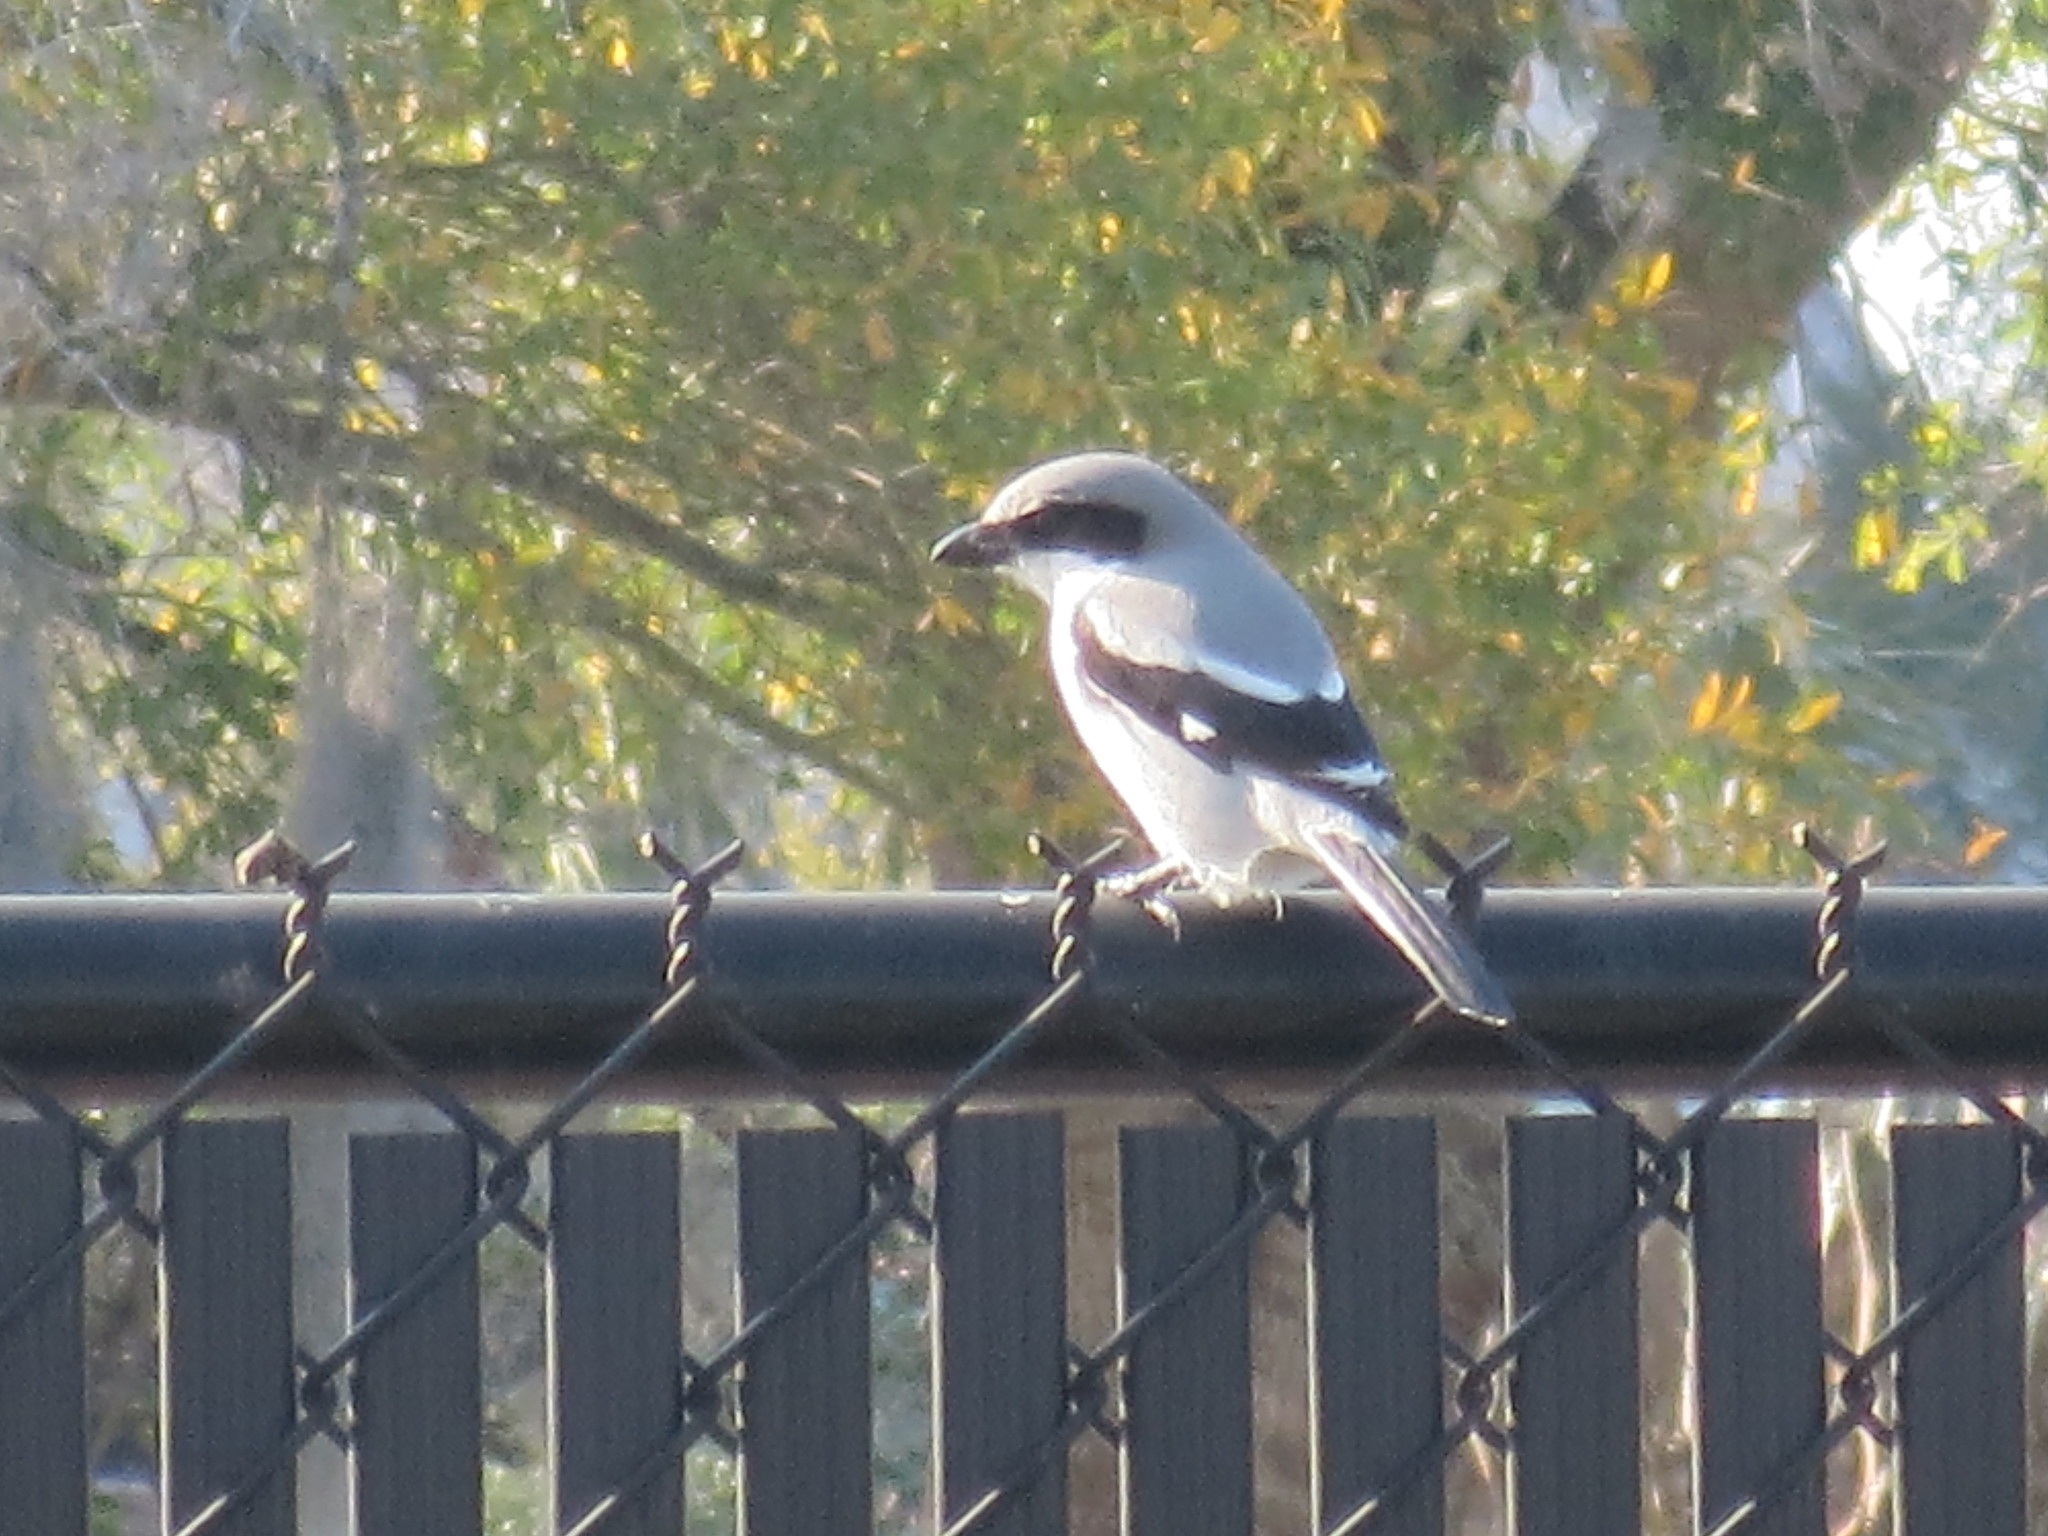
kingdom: Animalia
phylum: Chordata
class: Aves
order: Passeriformes
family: Laniidae
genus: Lanius
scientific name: Lanius ludovicianus
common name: Loggerhead shrike
